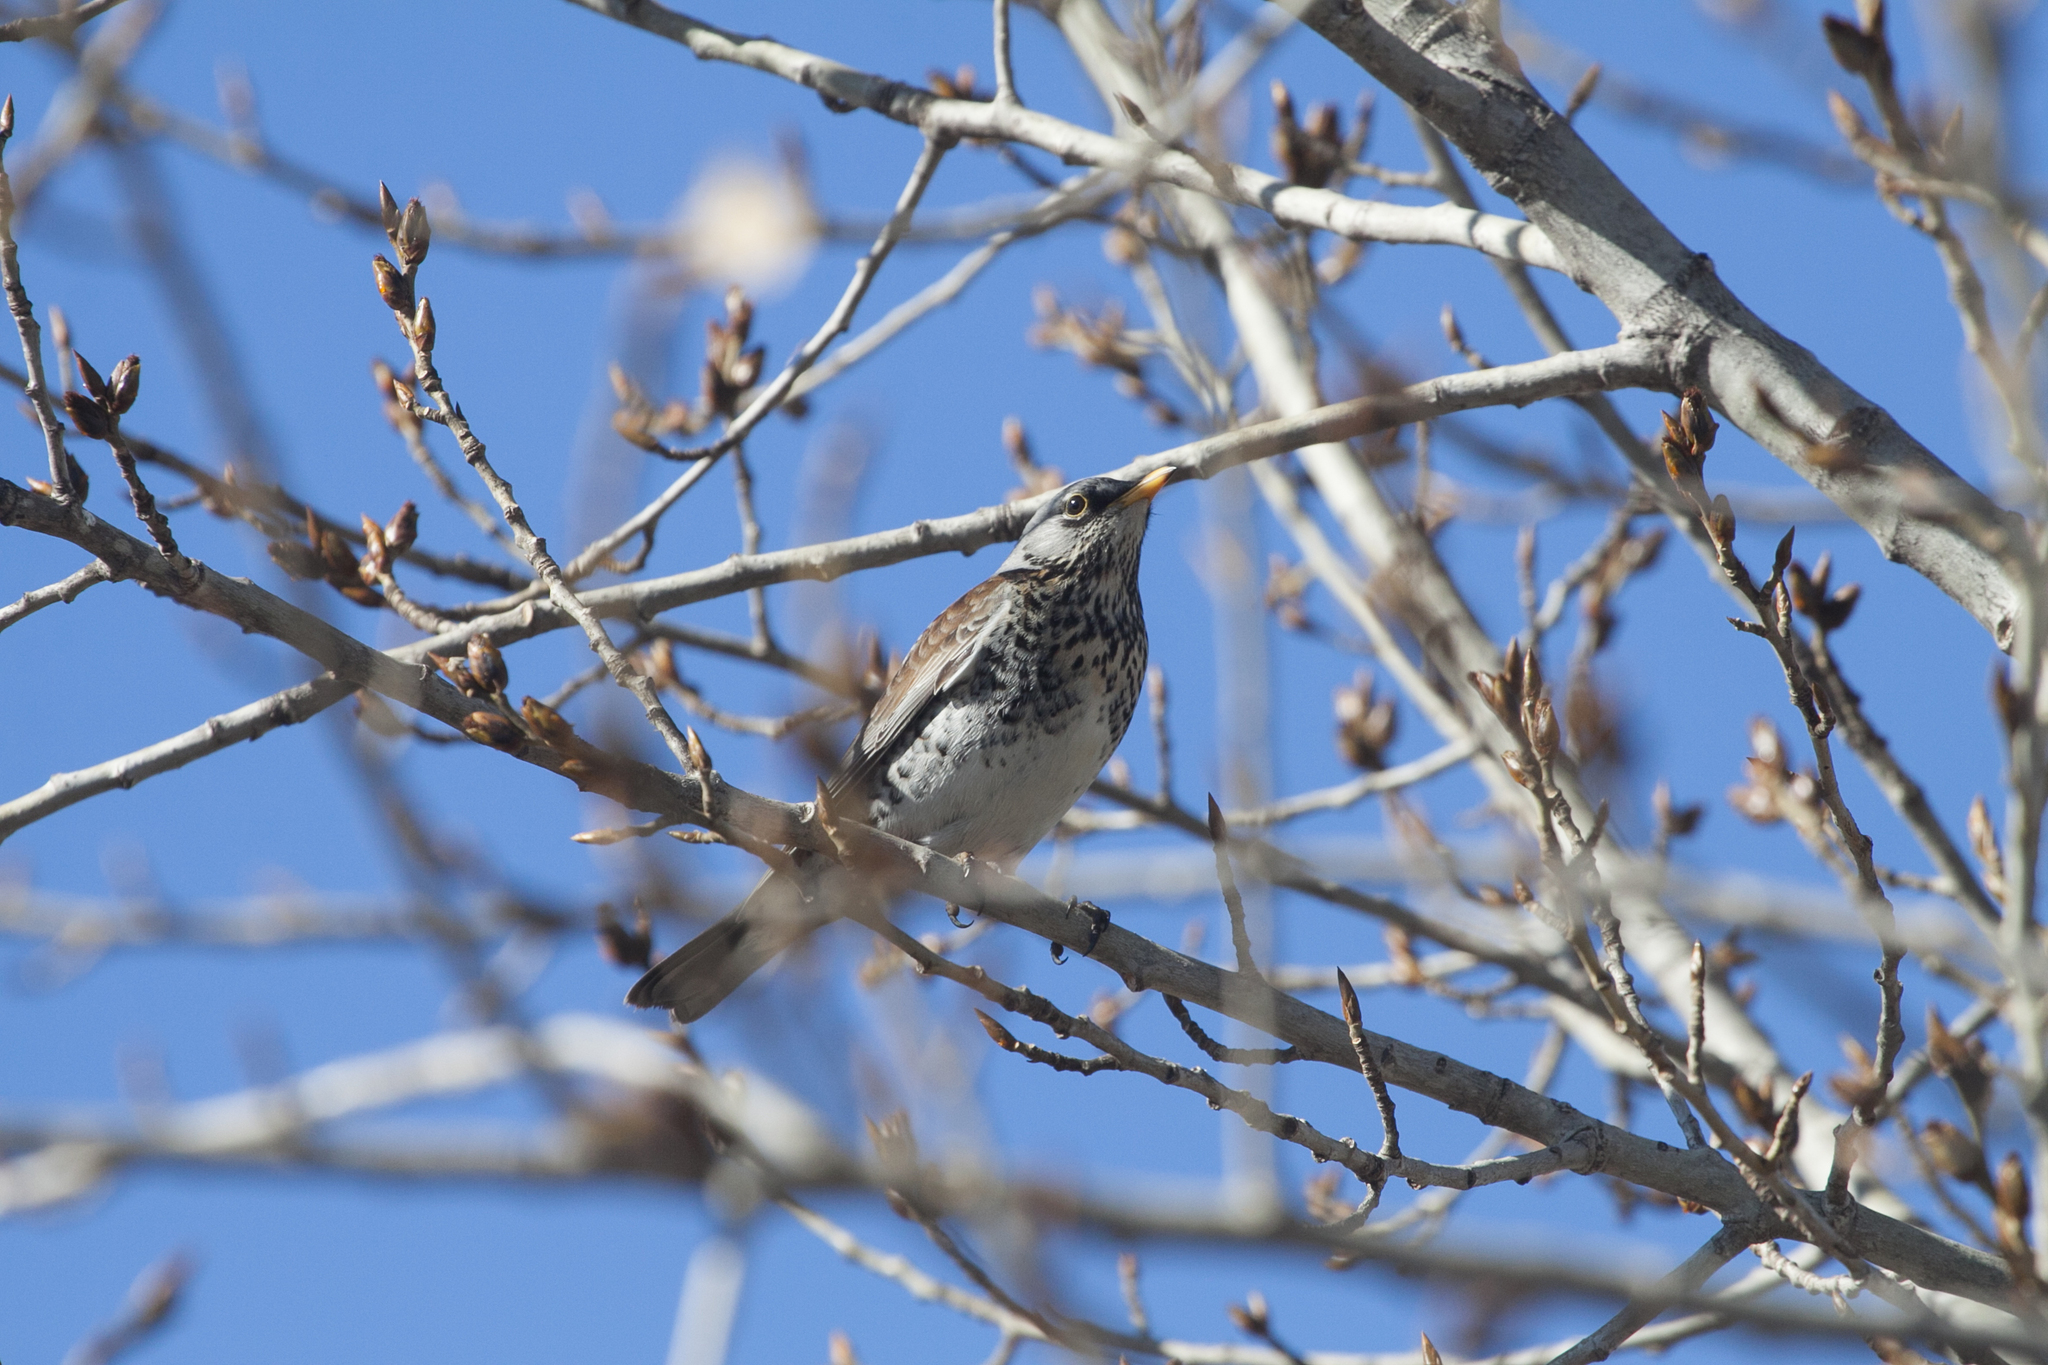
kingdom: Animalia
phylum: Chordata
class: Aves
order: Passeriformes
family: Turdidae
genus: Turdus
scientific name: Turdus pilaris
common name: Fieldfare
